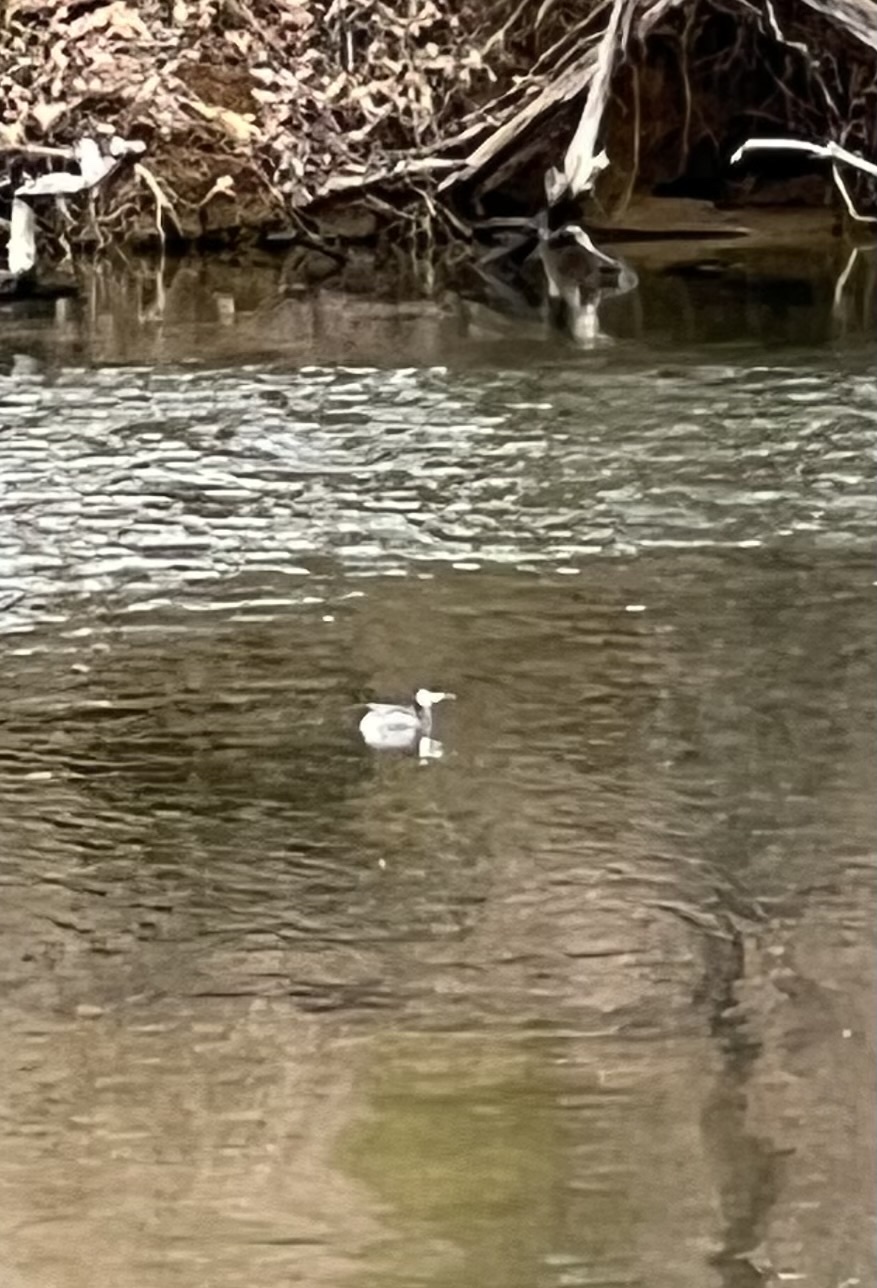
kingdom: Animalia
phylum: Chordata
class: Aves
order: Podicipediformes
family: Podicipedidae
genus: Podiceps
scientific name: Podiceps auritus
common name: Horned grebe
